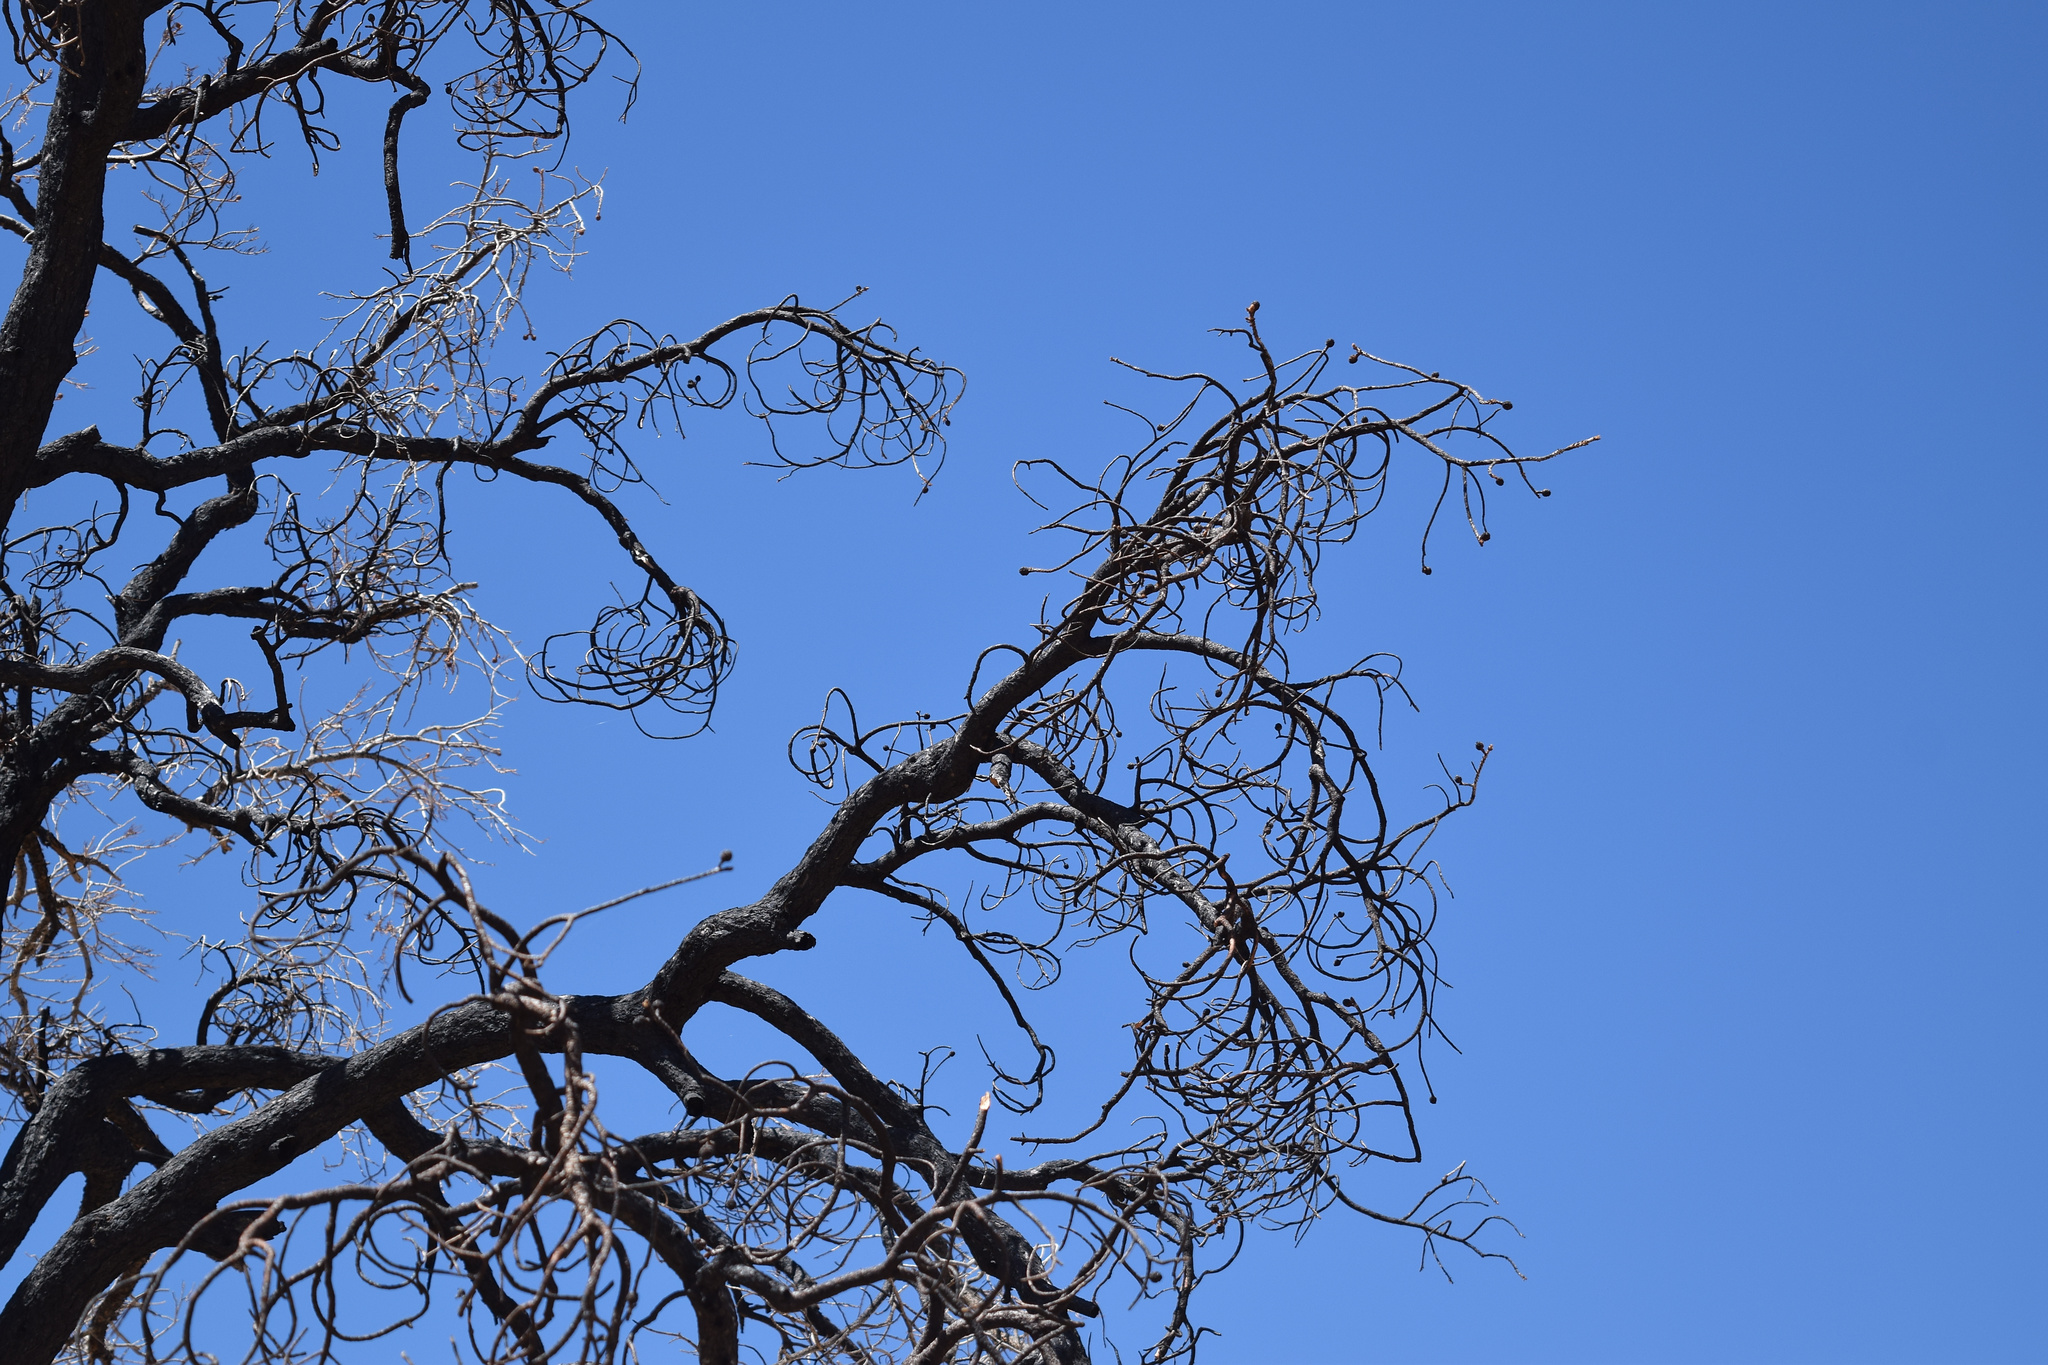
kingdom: Plantae
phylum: Tracheophyta
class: Pinopsida
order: Pinales
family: Pinaceae
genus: Pinus
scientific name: Pinus monophylla
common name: One-leaved nut pine
